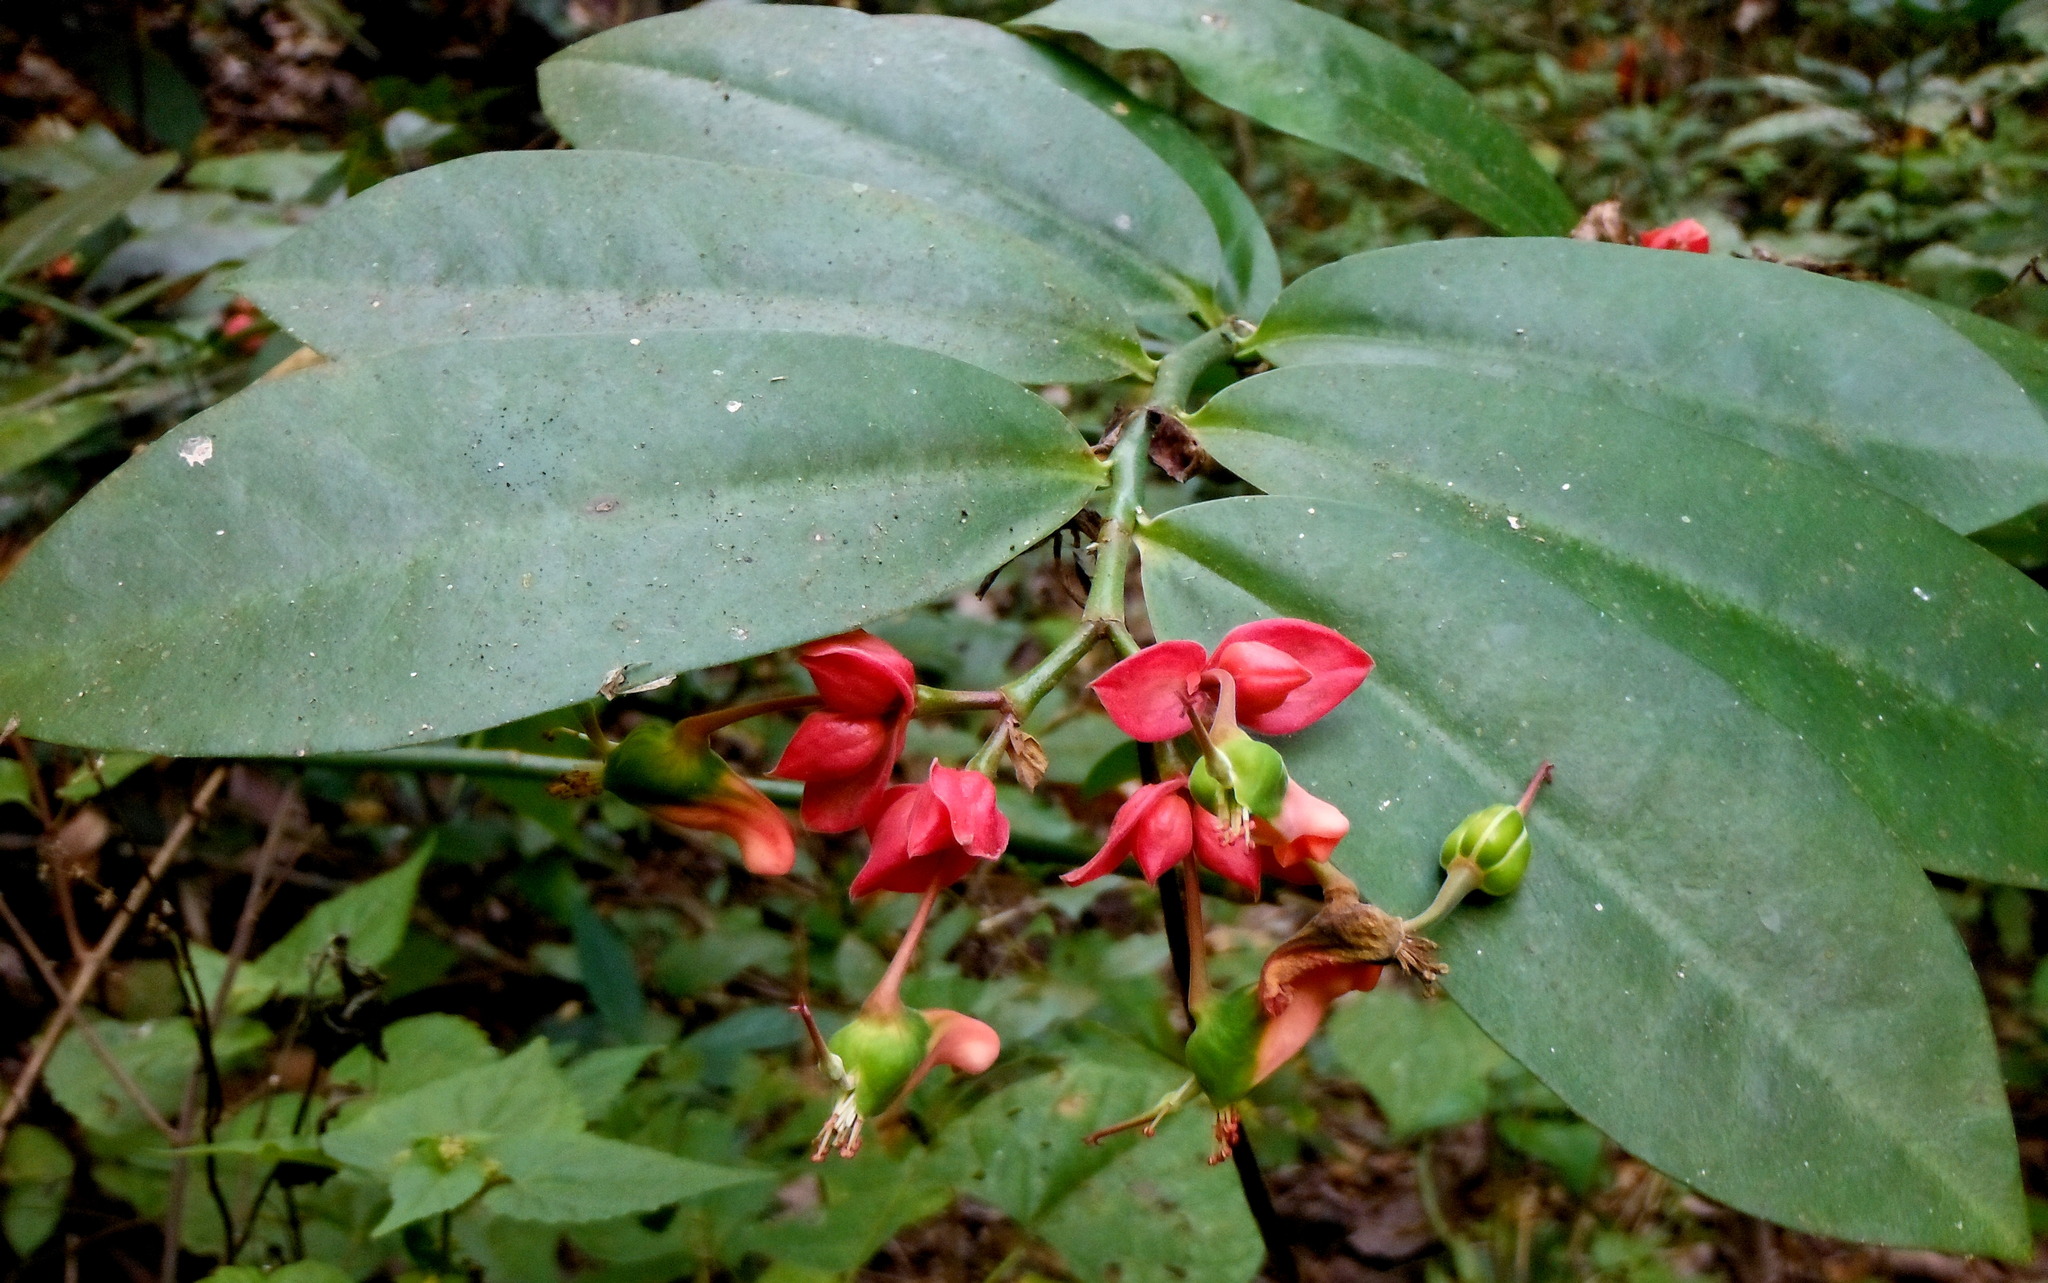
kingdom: Plantae
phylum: Tracheophyta
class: Magnoliopsida
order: Malpighiales
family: Euphorbiaceae
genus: Euphorbia
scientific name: Euphorbia peritropoides
